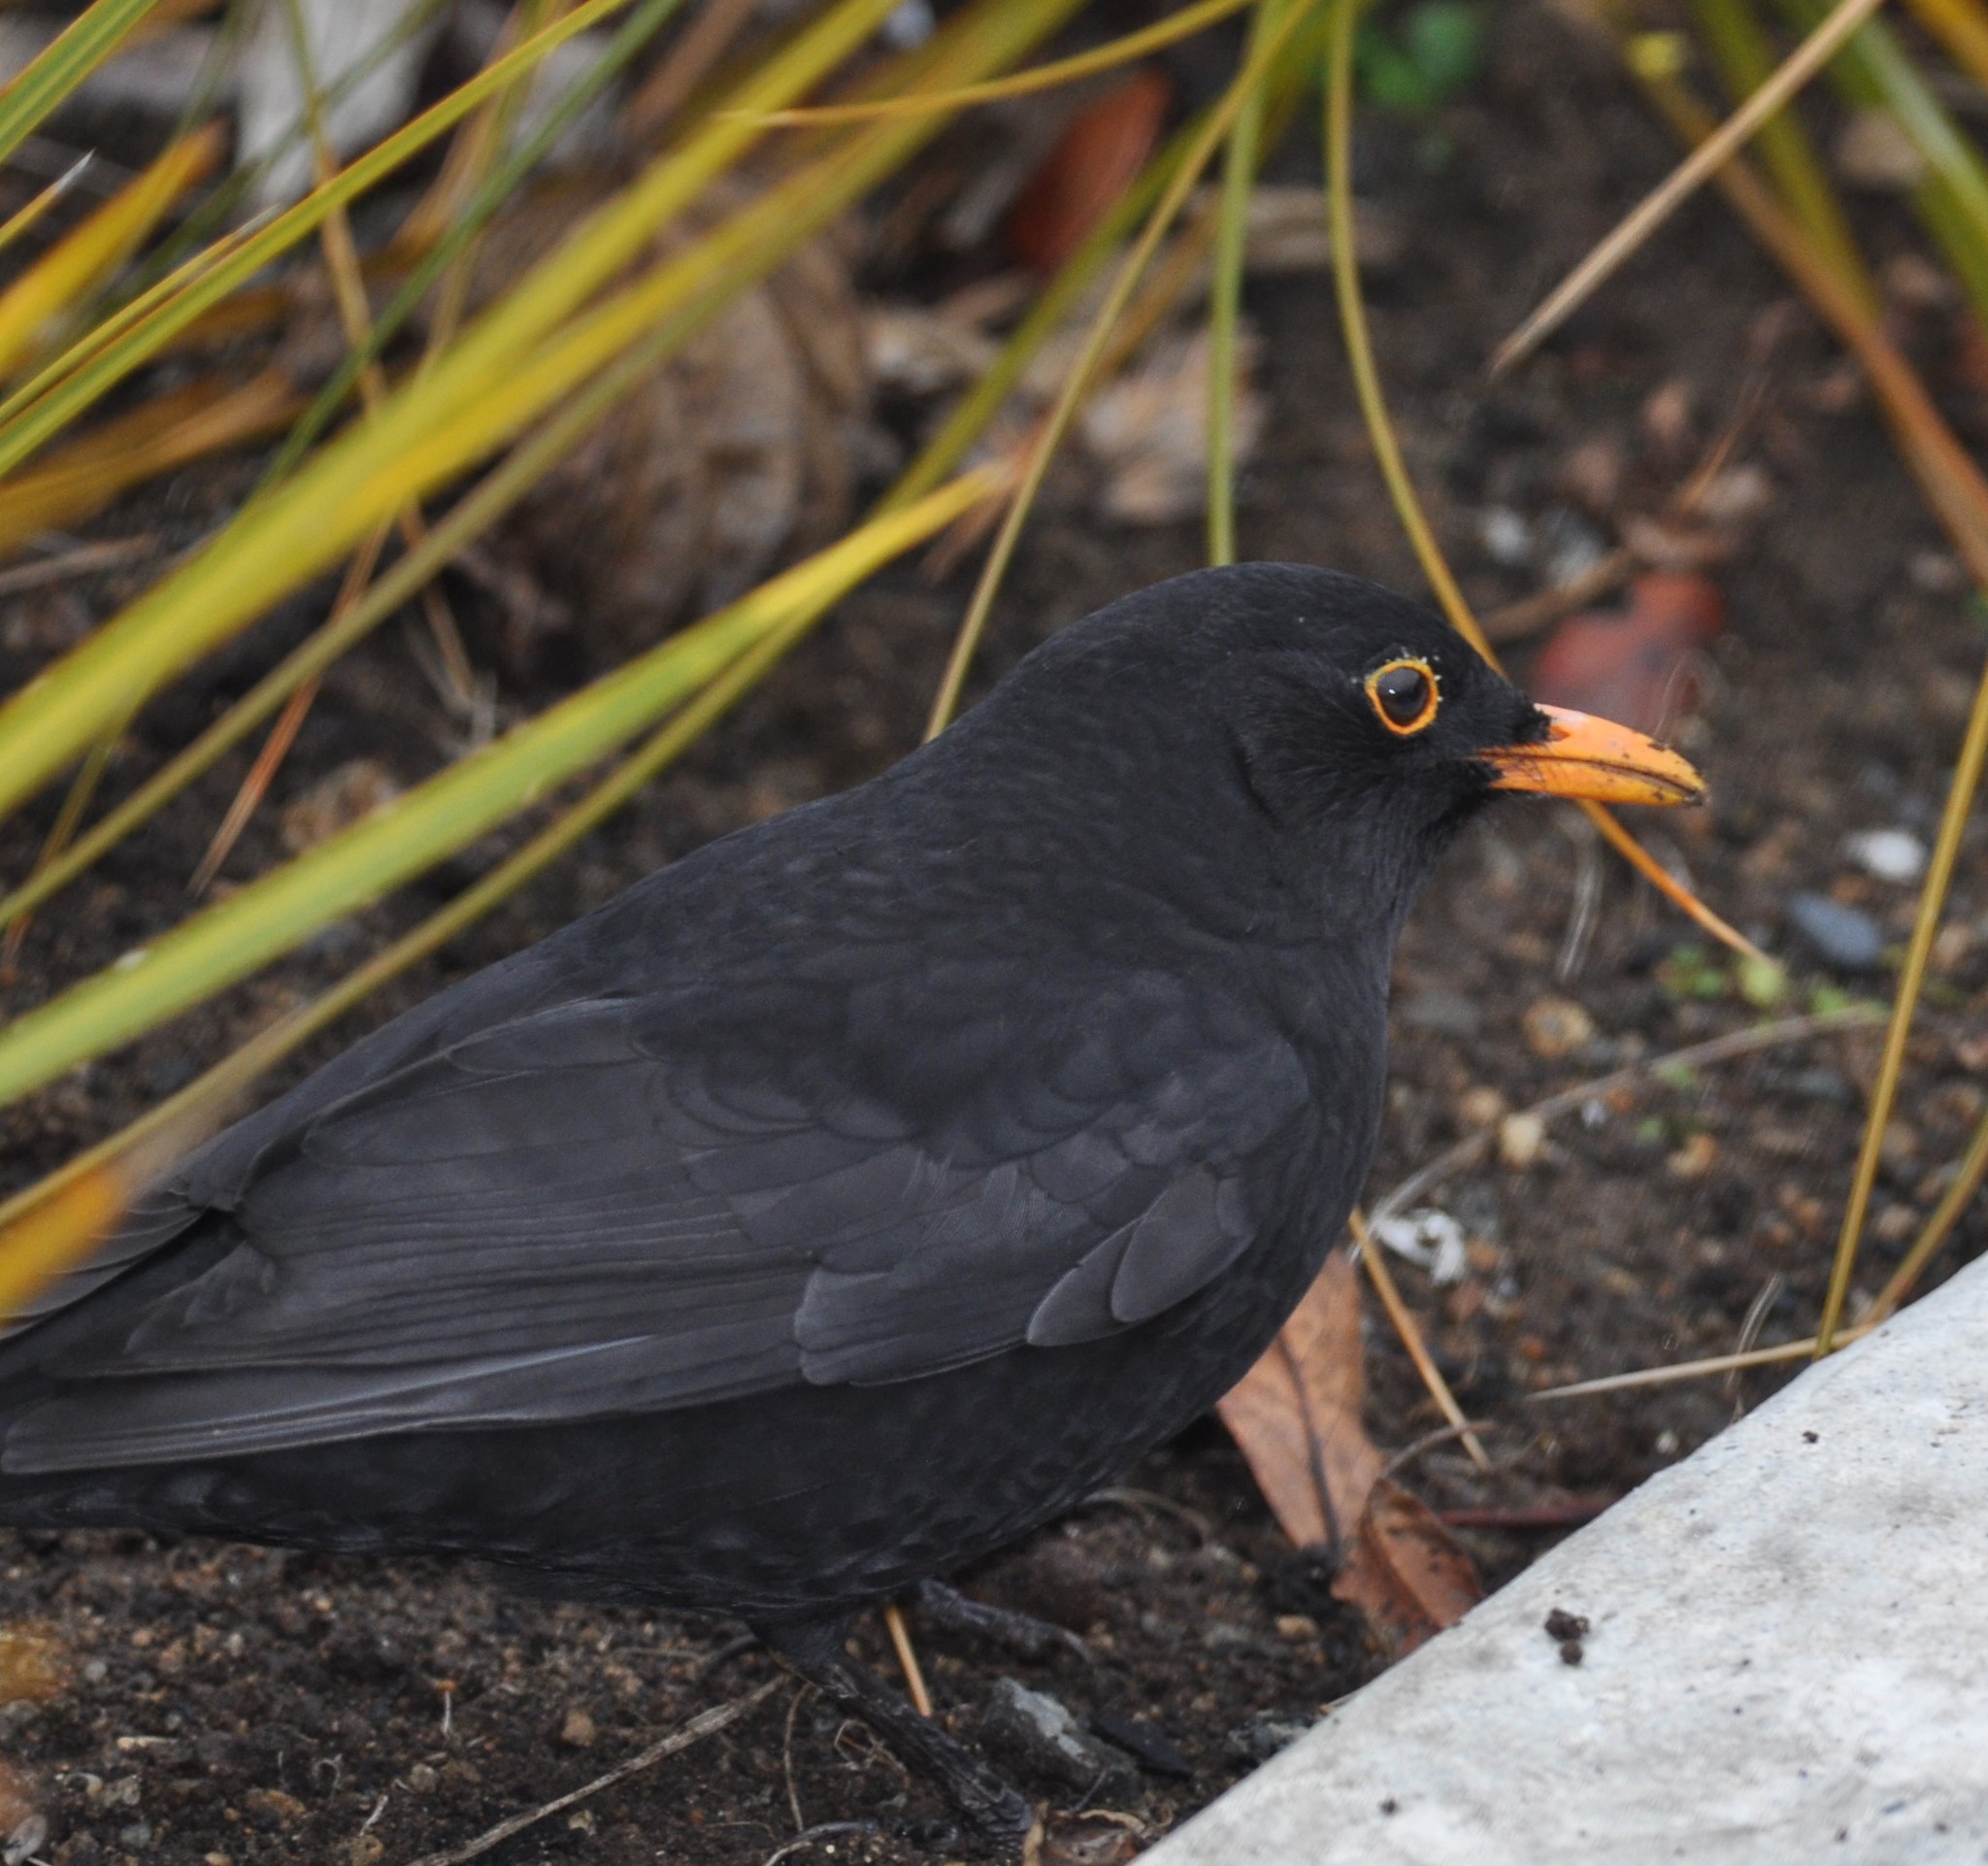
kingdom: Animalia
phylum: Chordata
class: Aves
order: Passeriformes
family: Turdidae
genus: Turdus
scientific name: Turdus merula
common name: Common blackbird
